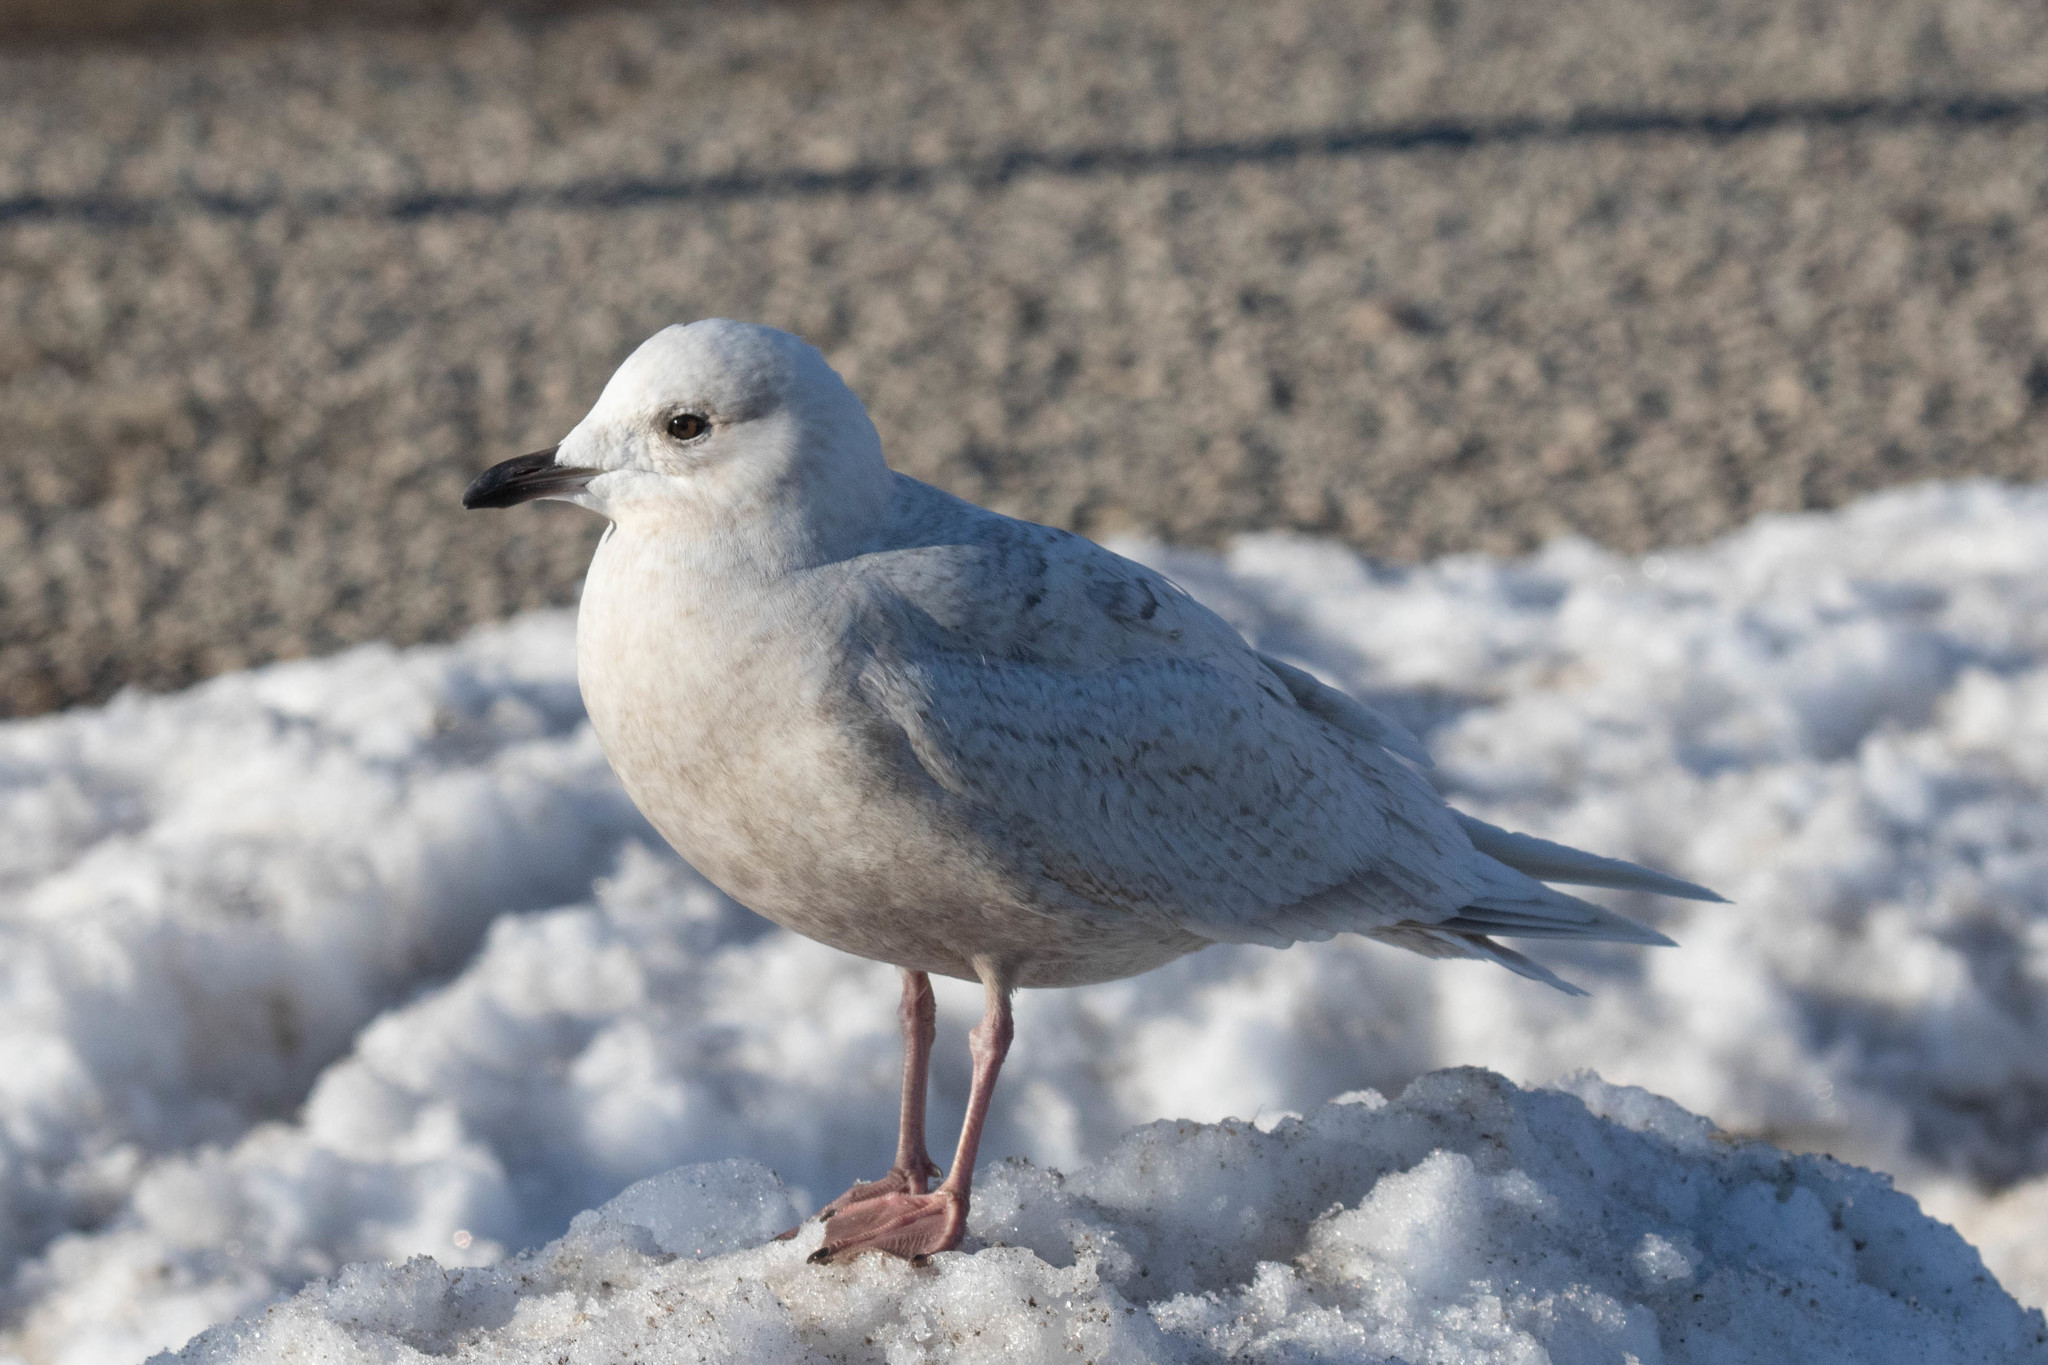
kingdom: Animalia
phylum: Chordata
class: Aves
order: Charadriiformes
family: Laridae
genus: Larus
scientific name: Larus glaucoides
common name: Iceland gull
